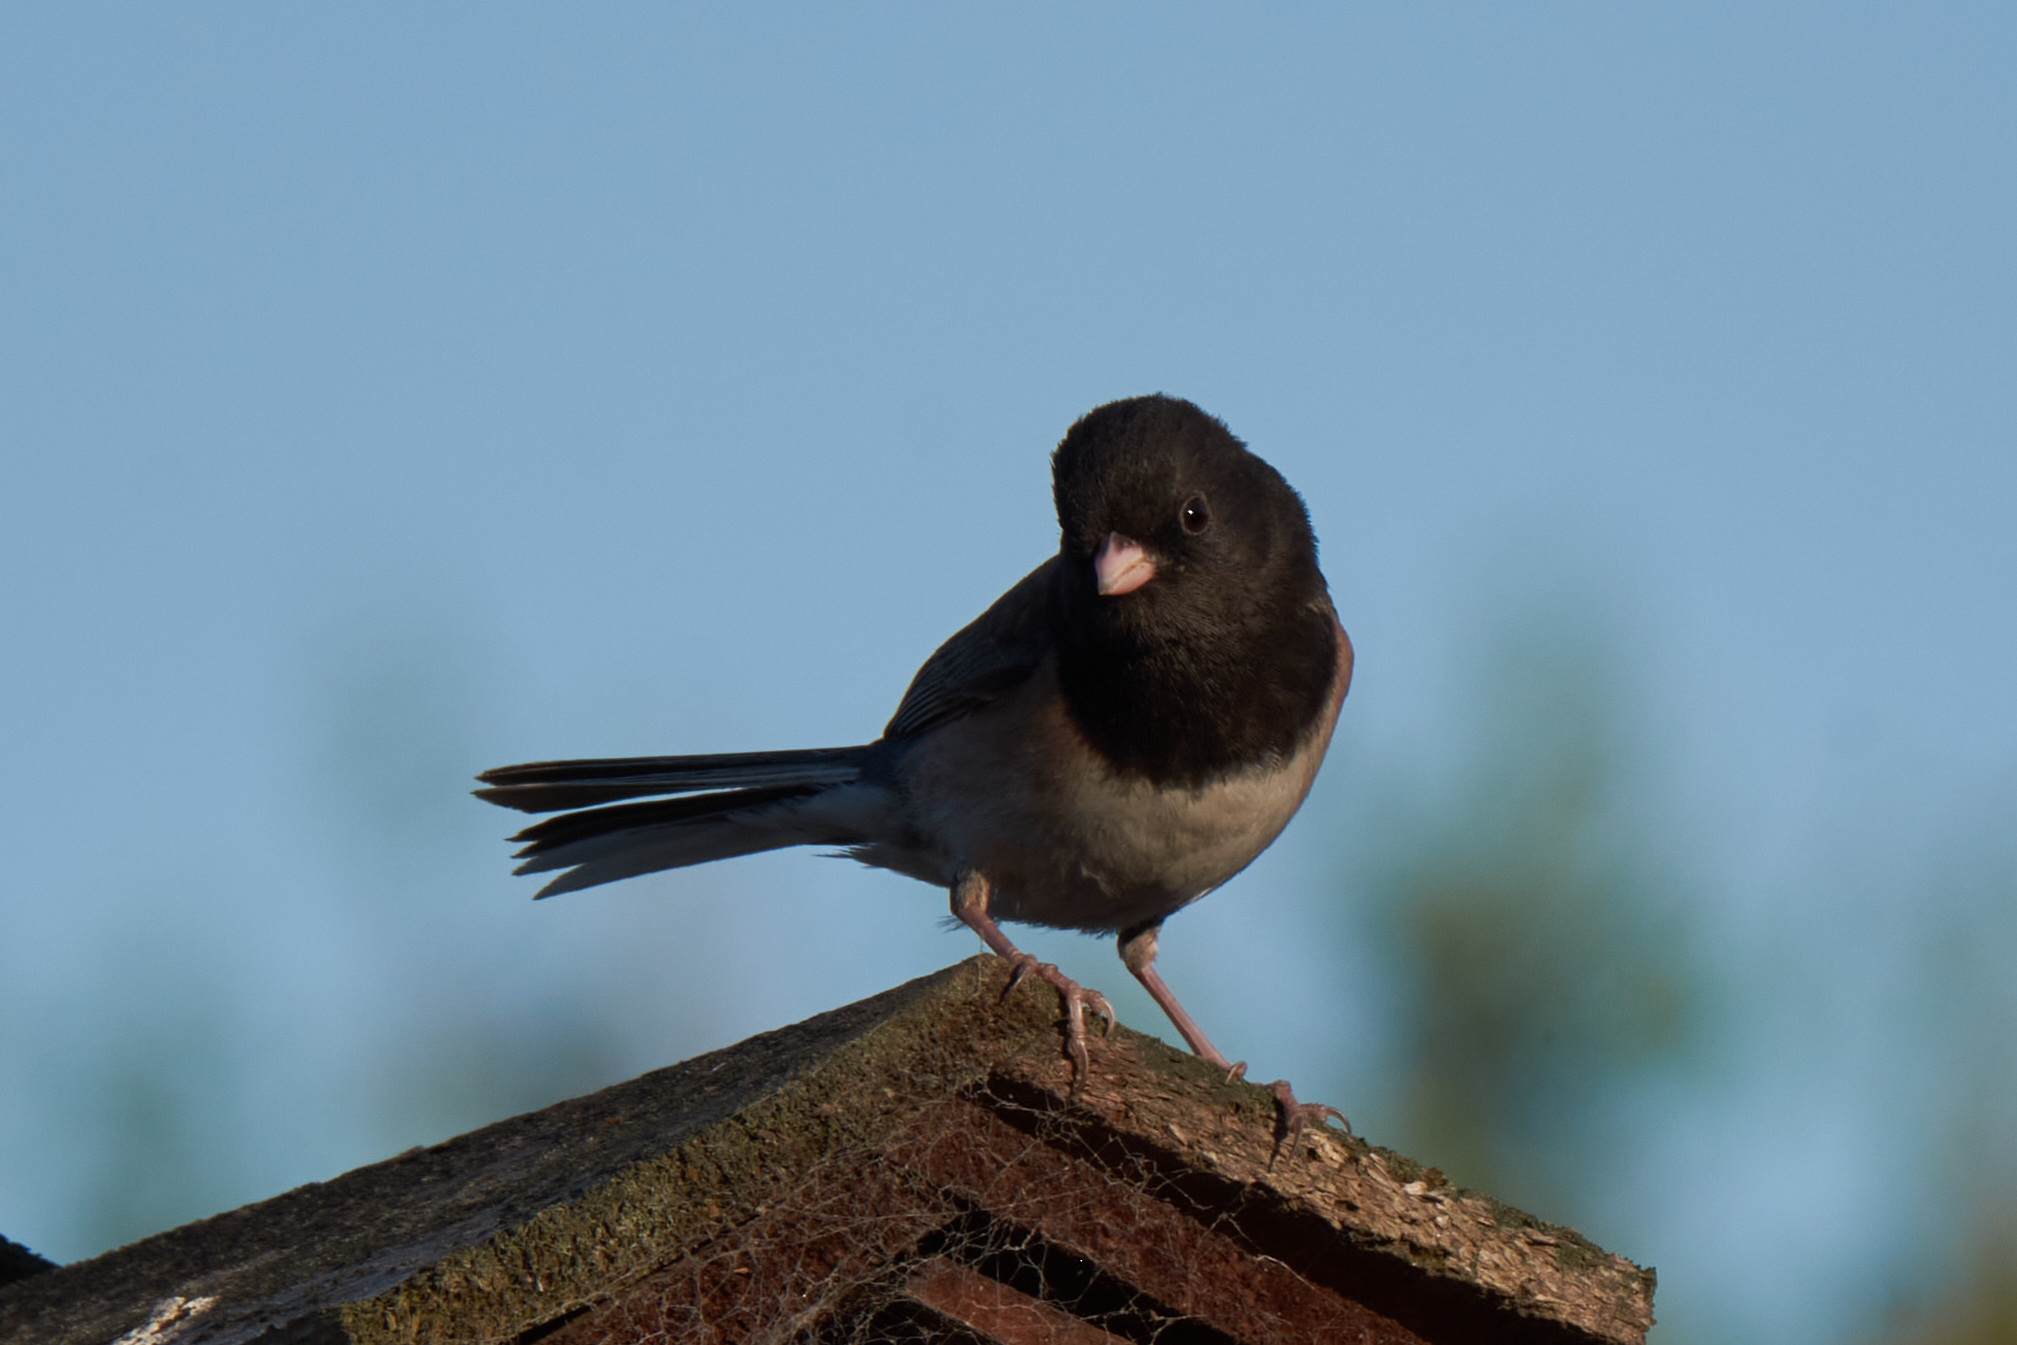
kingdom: Animalia
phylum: Chordata
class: Aves
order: Passeriformes
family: Passerellidae
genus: Junco
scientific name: Junco hyemalis
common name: Dark-eyed junco
